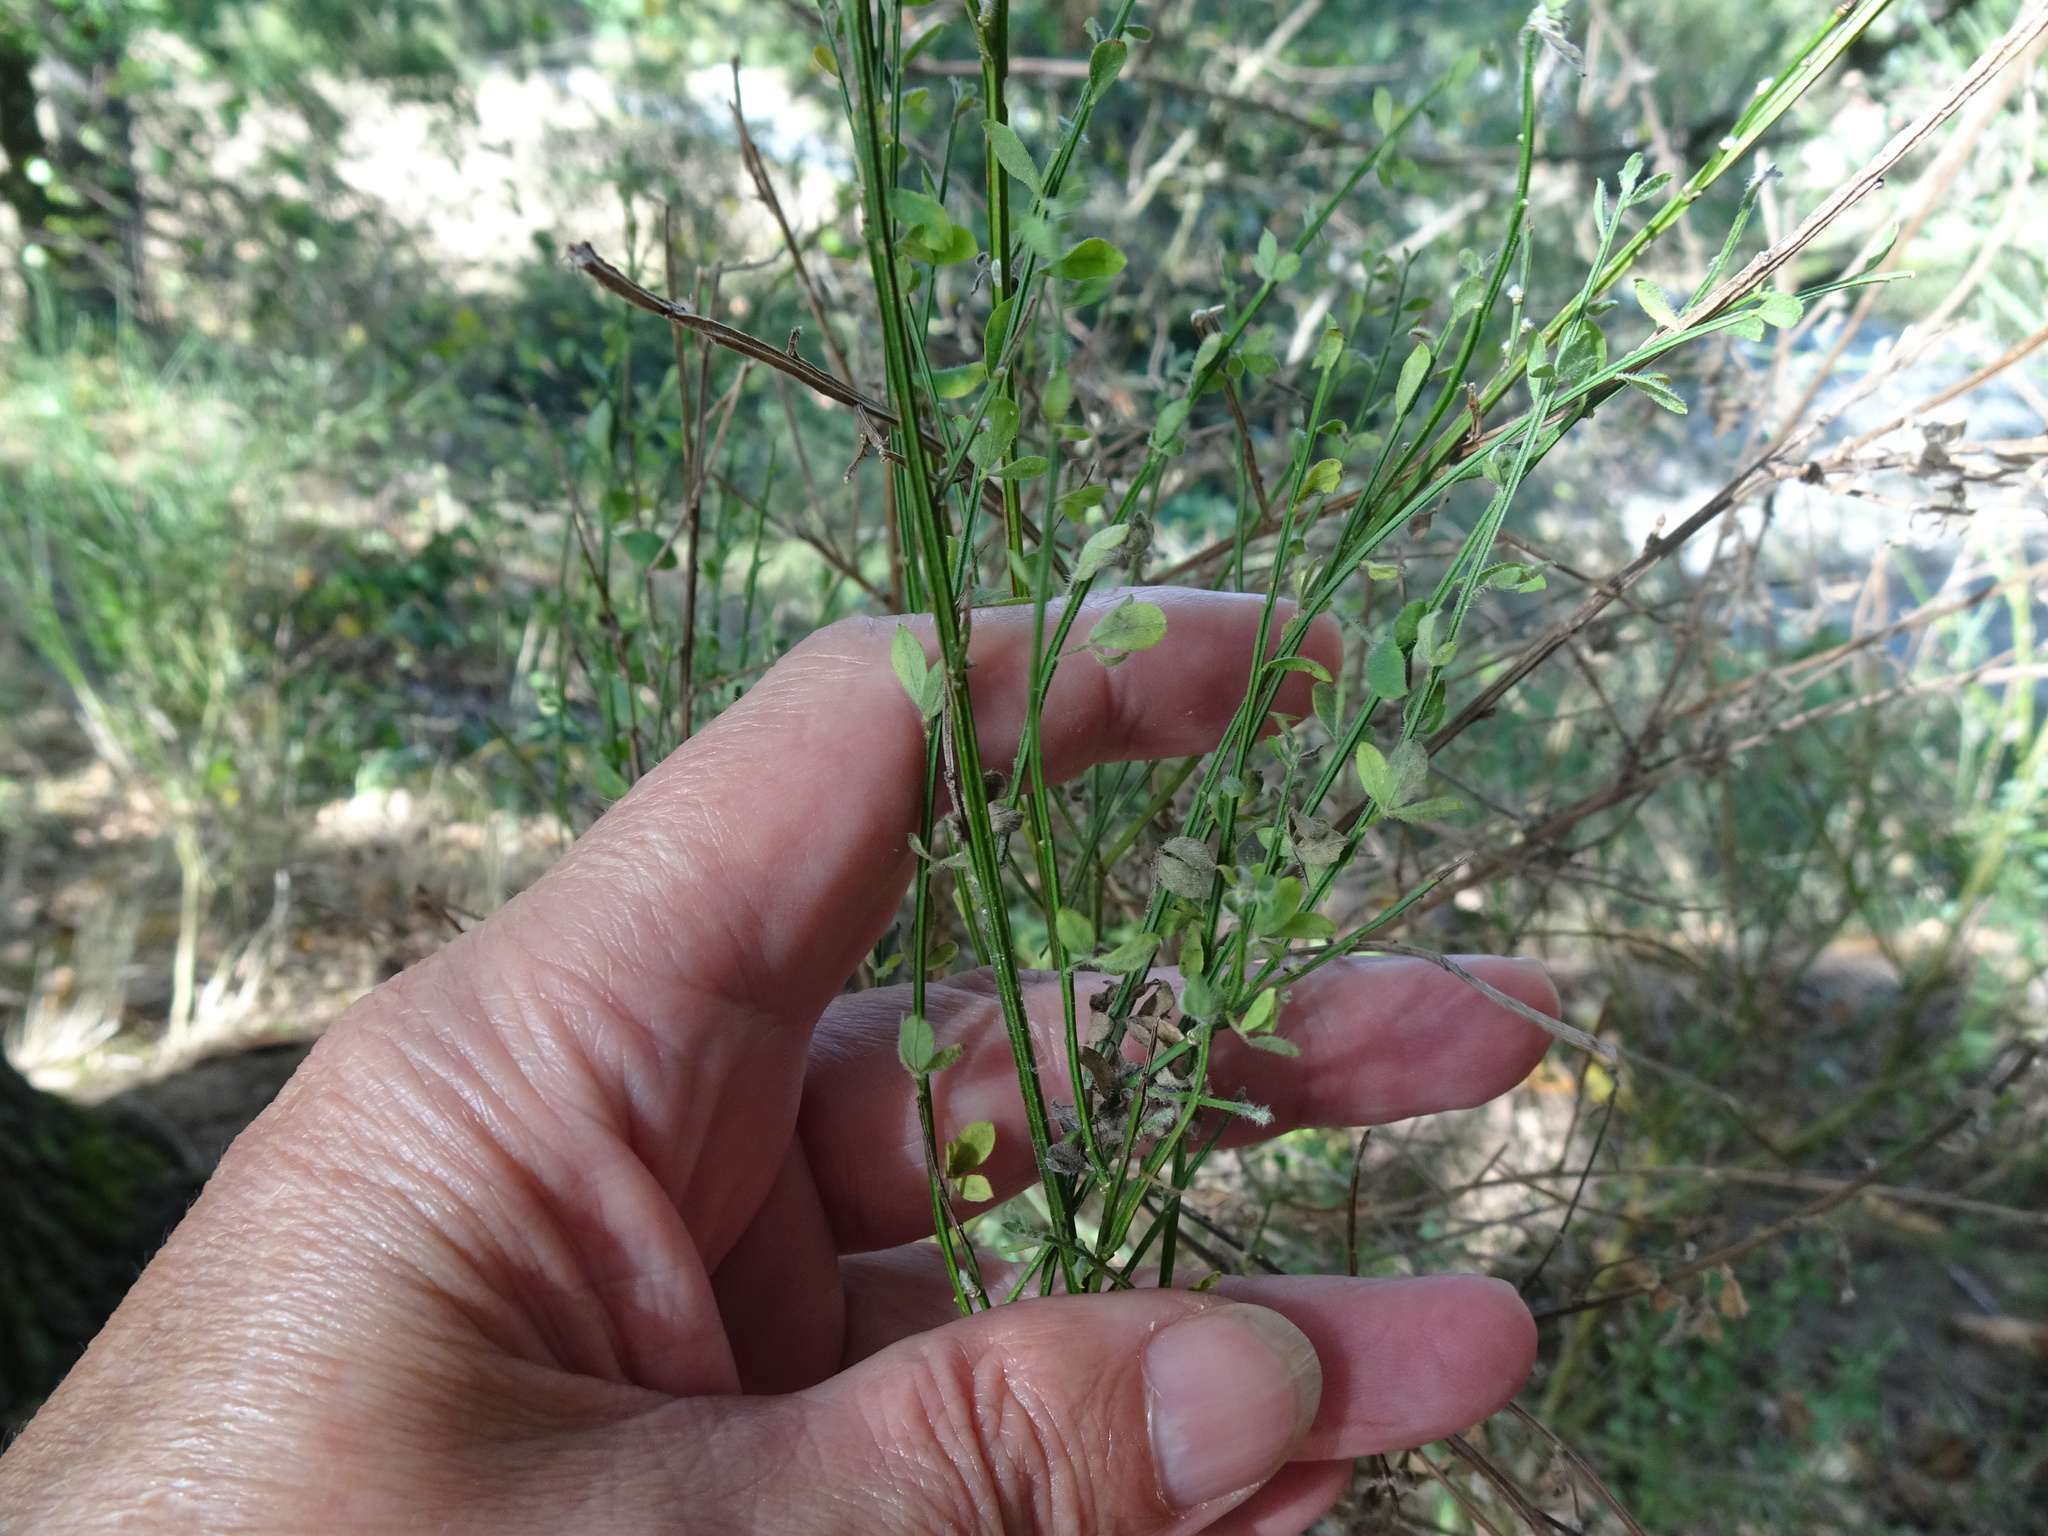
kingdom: Plantae
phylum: Tracheophyta
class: Magnoliopsida
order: Fabales
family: Fabaceae
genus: Cytisus
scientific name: Cytisus scoparius
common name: Scotch broom
